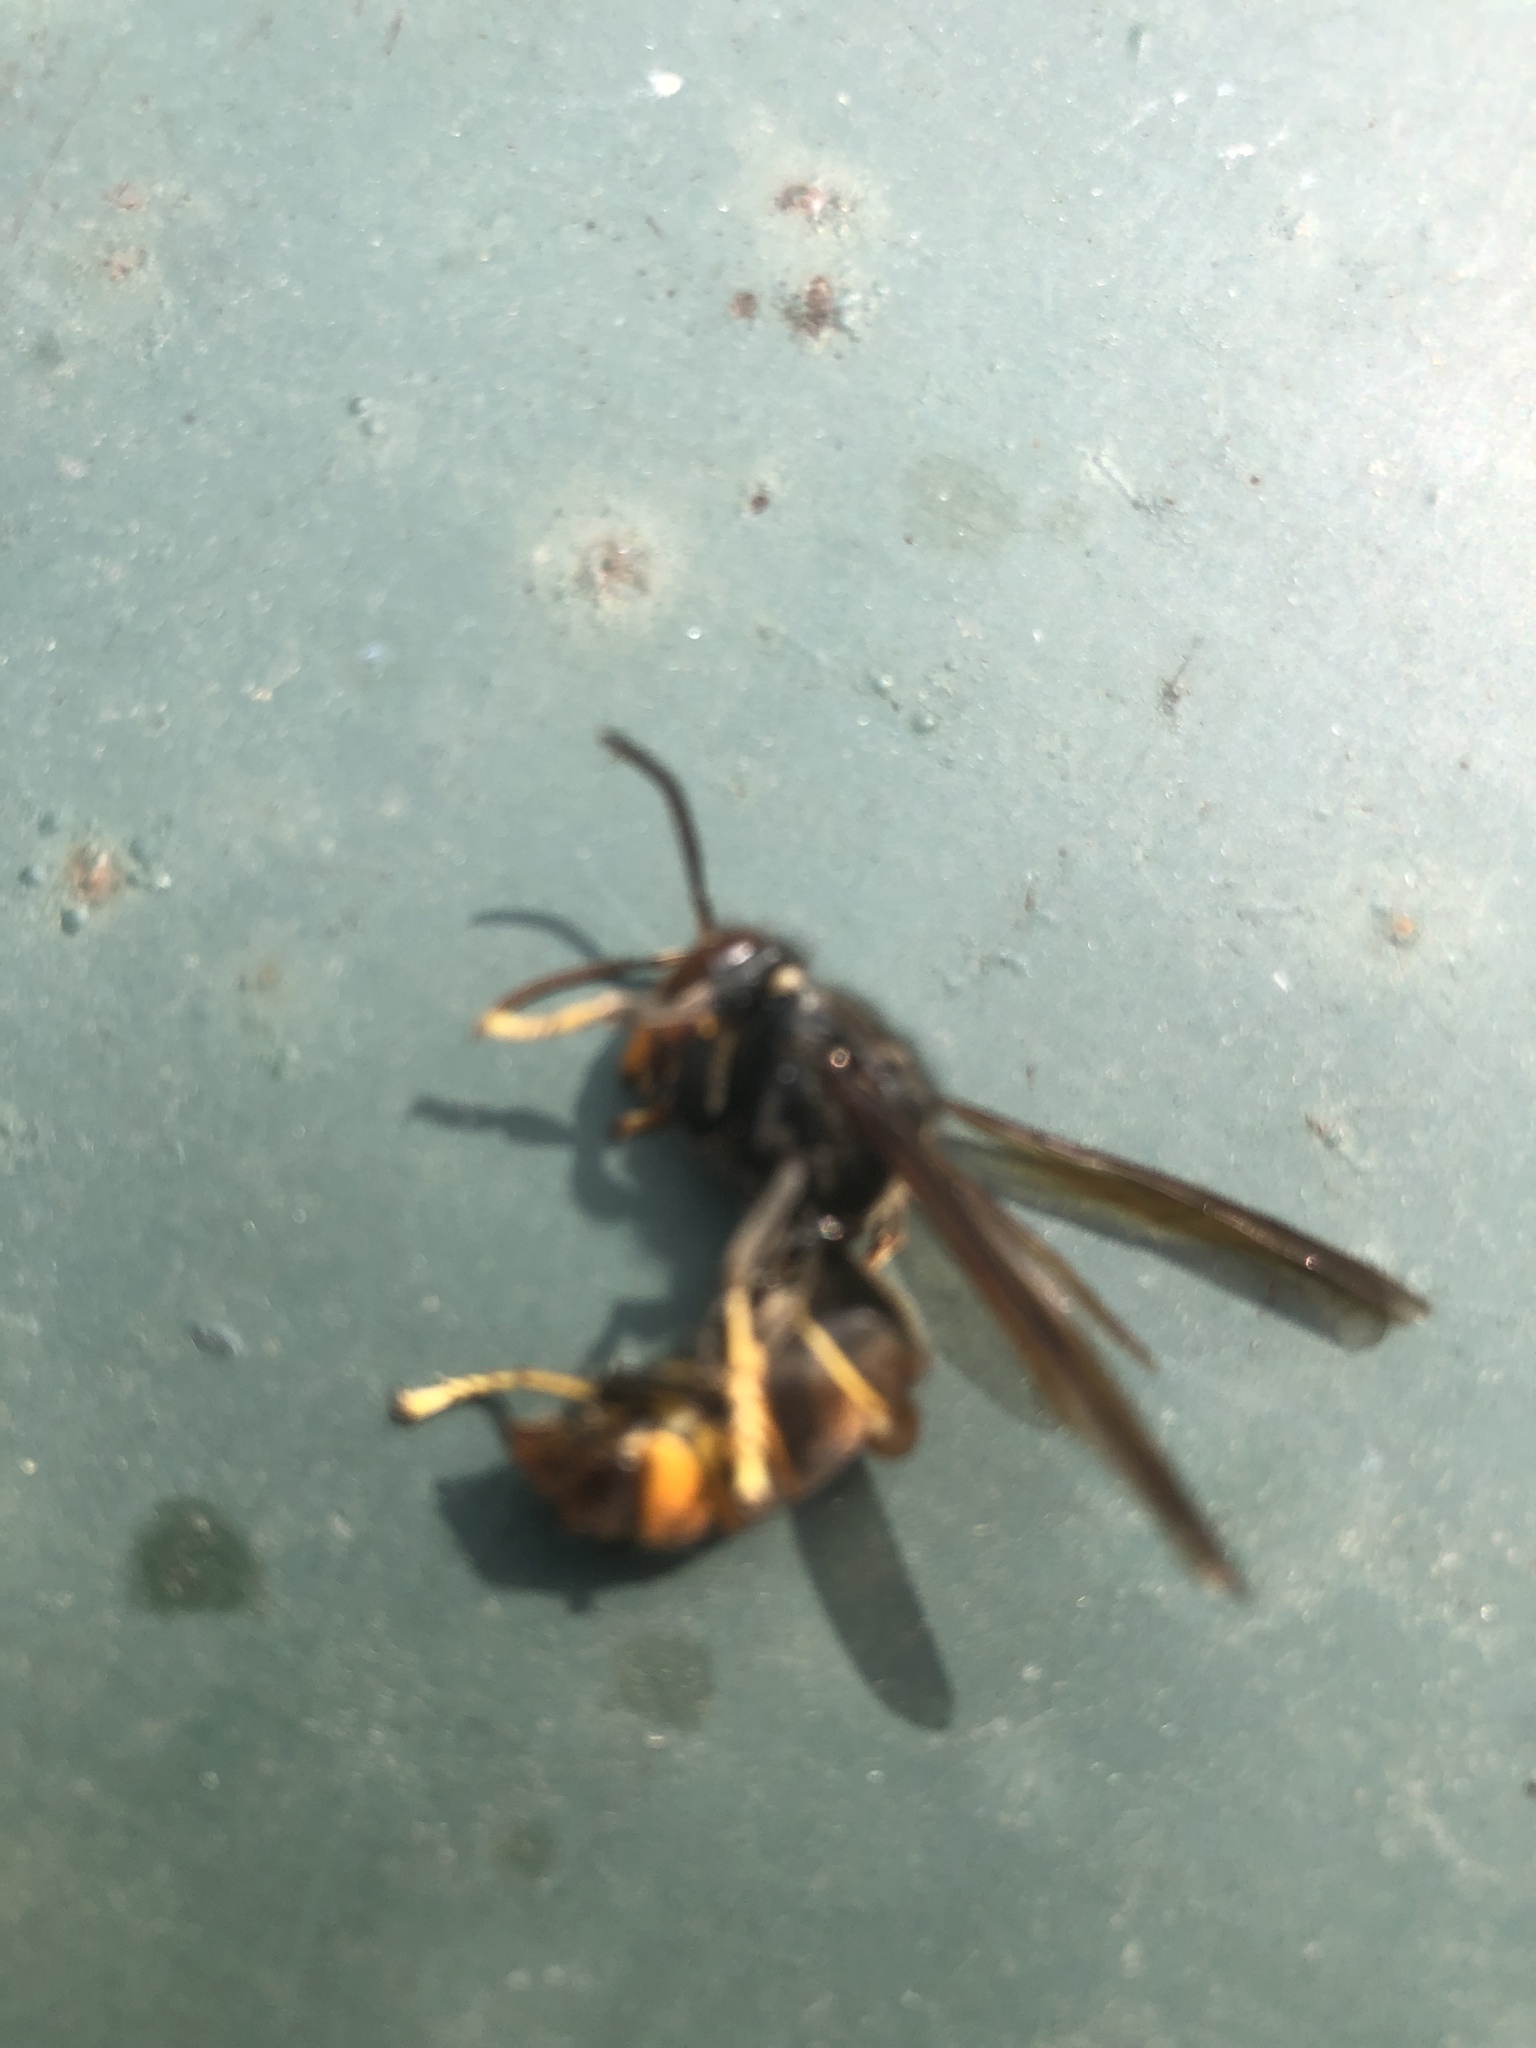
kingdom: Animalia
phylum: Arthropoda
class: Insecta
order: Hymenoptera
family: Vespidae
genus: Vespa
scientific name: Vespa velutina
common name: Asian hornet
